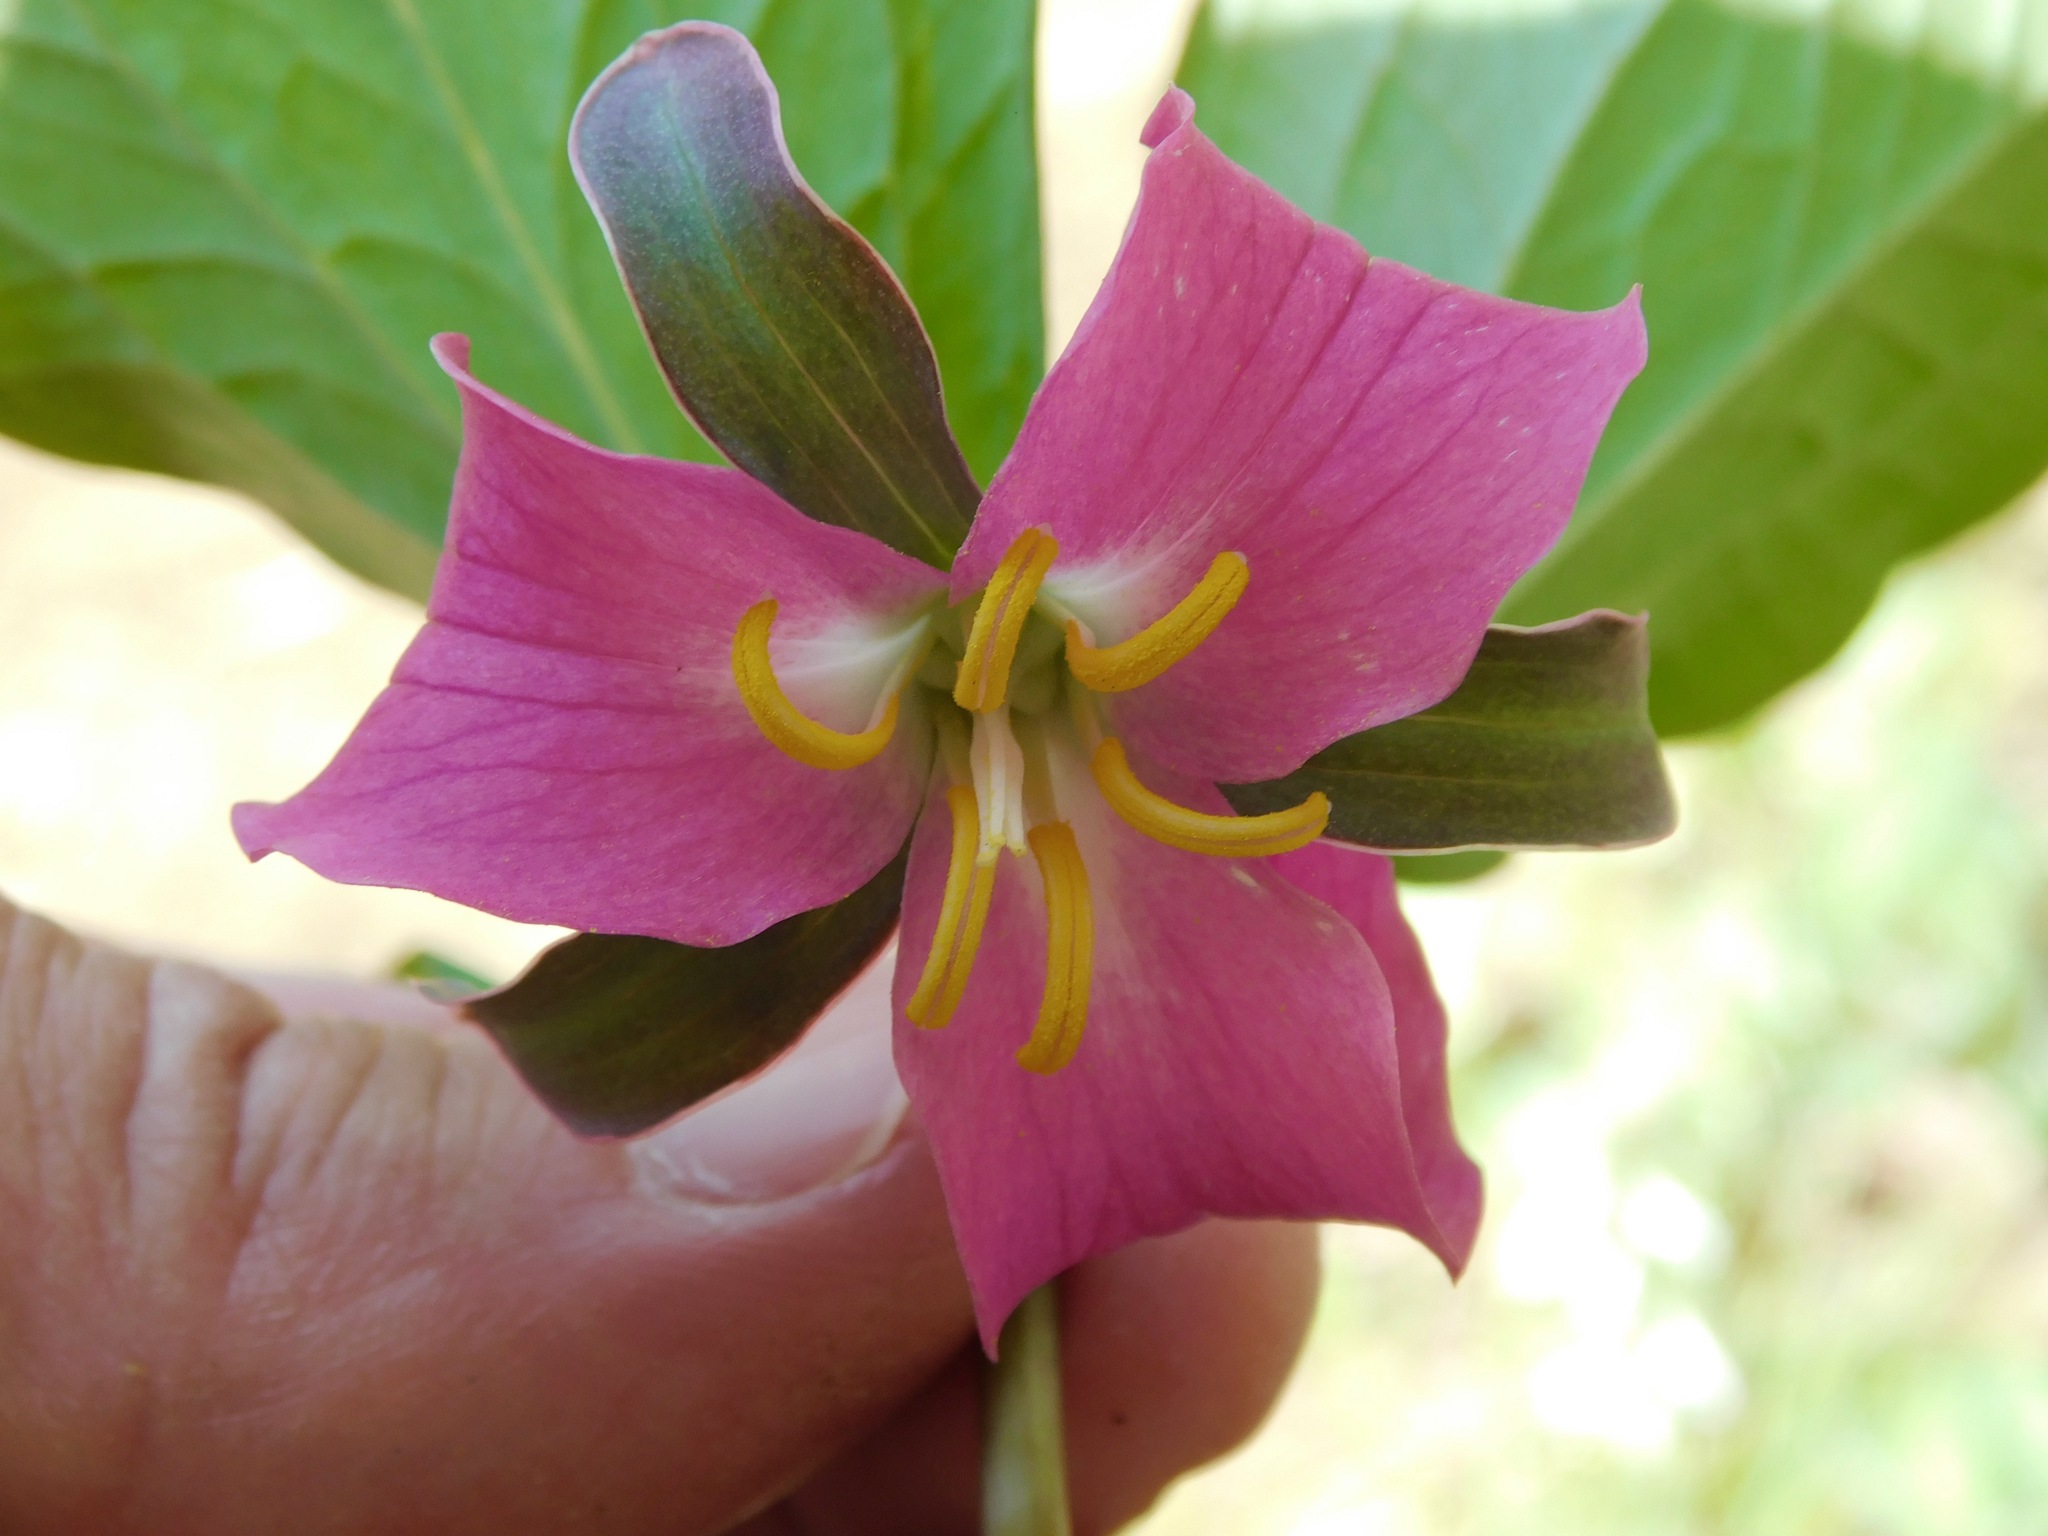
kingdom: Plantae
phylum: Tracheophyta
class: Liliopsida
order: Liliales
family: Melanthiaceae
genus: Trillium
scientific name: Trillium catesbaei
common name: Bashful trillium
